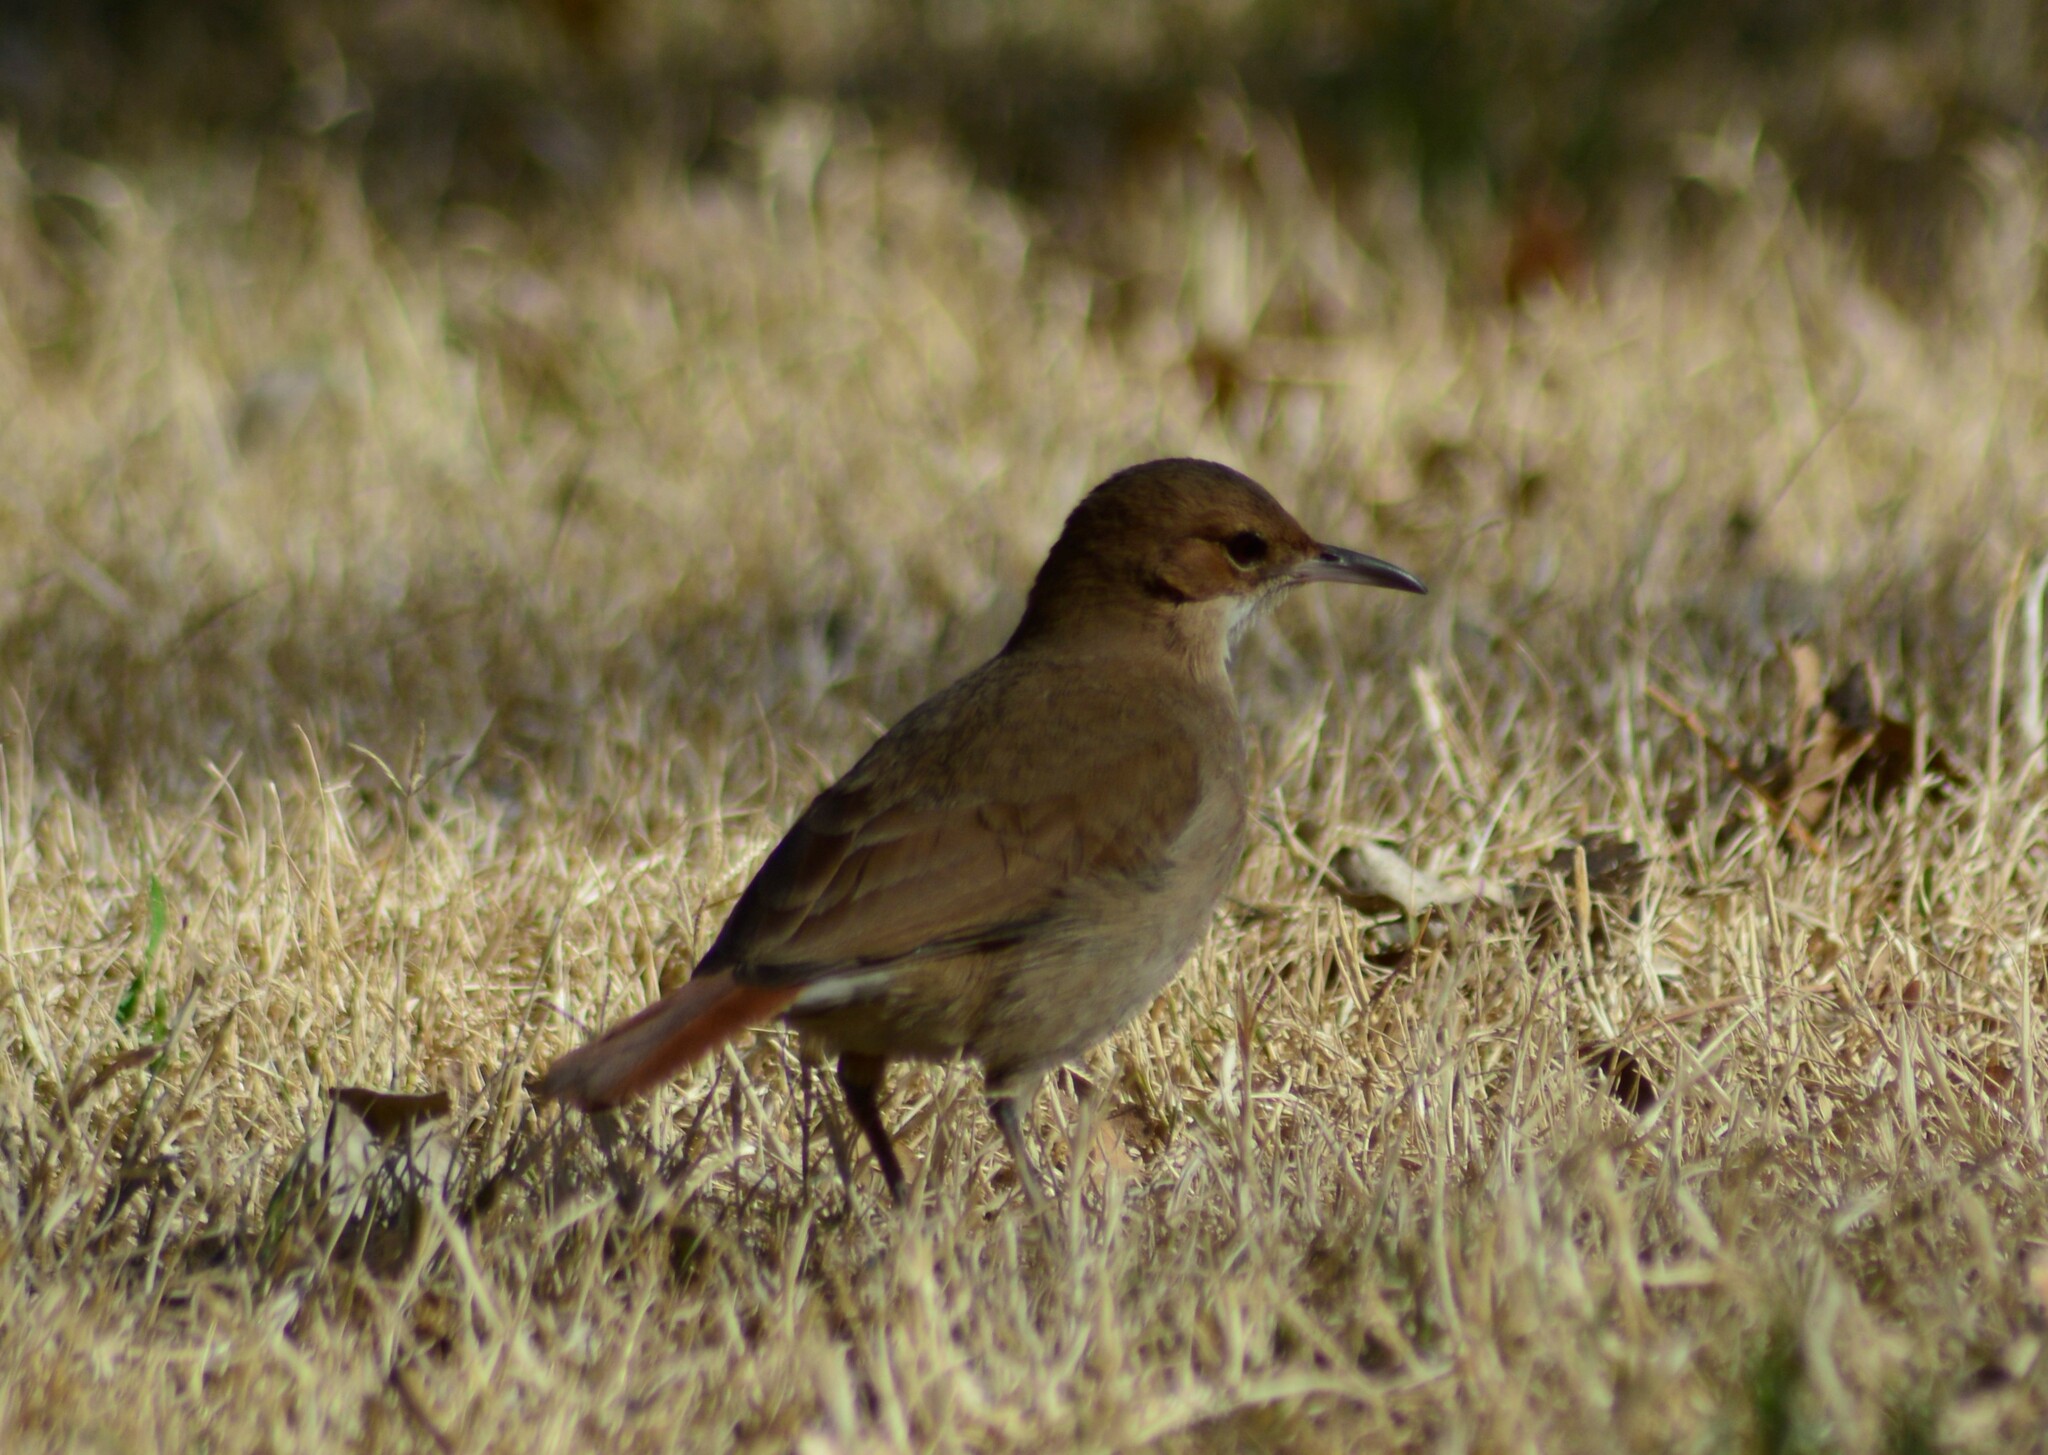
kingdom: Animalia
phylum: Chordata
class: Aves
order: Passeriformes
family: Furnariidae
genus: Furnarius
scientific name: Furnarius rufus
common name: Rufous hornero
